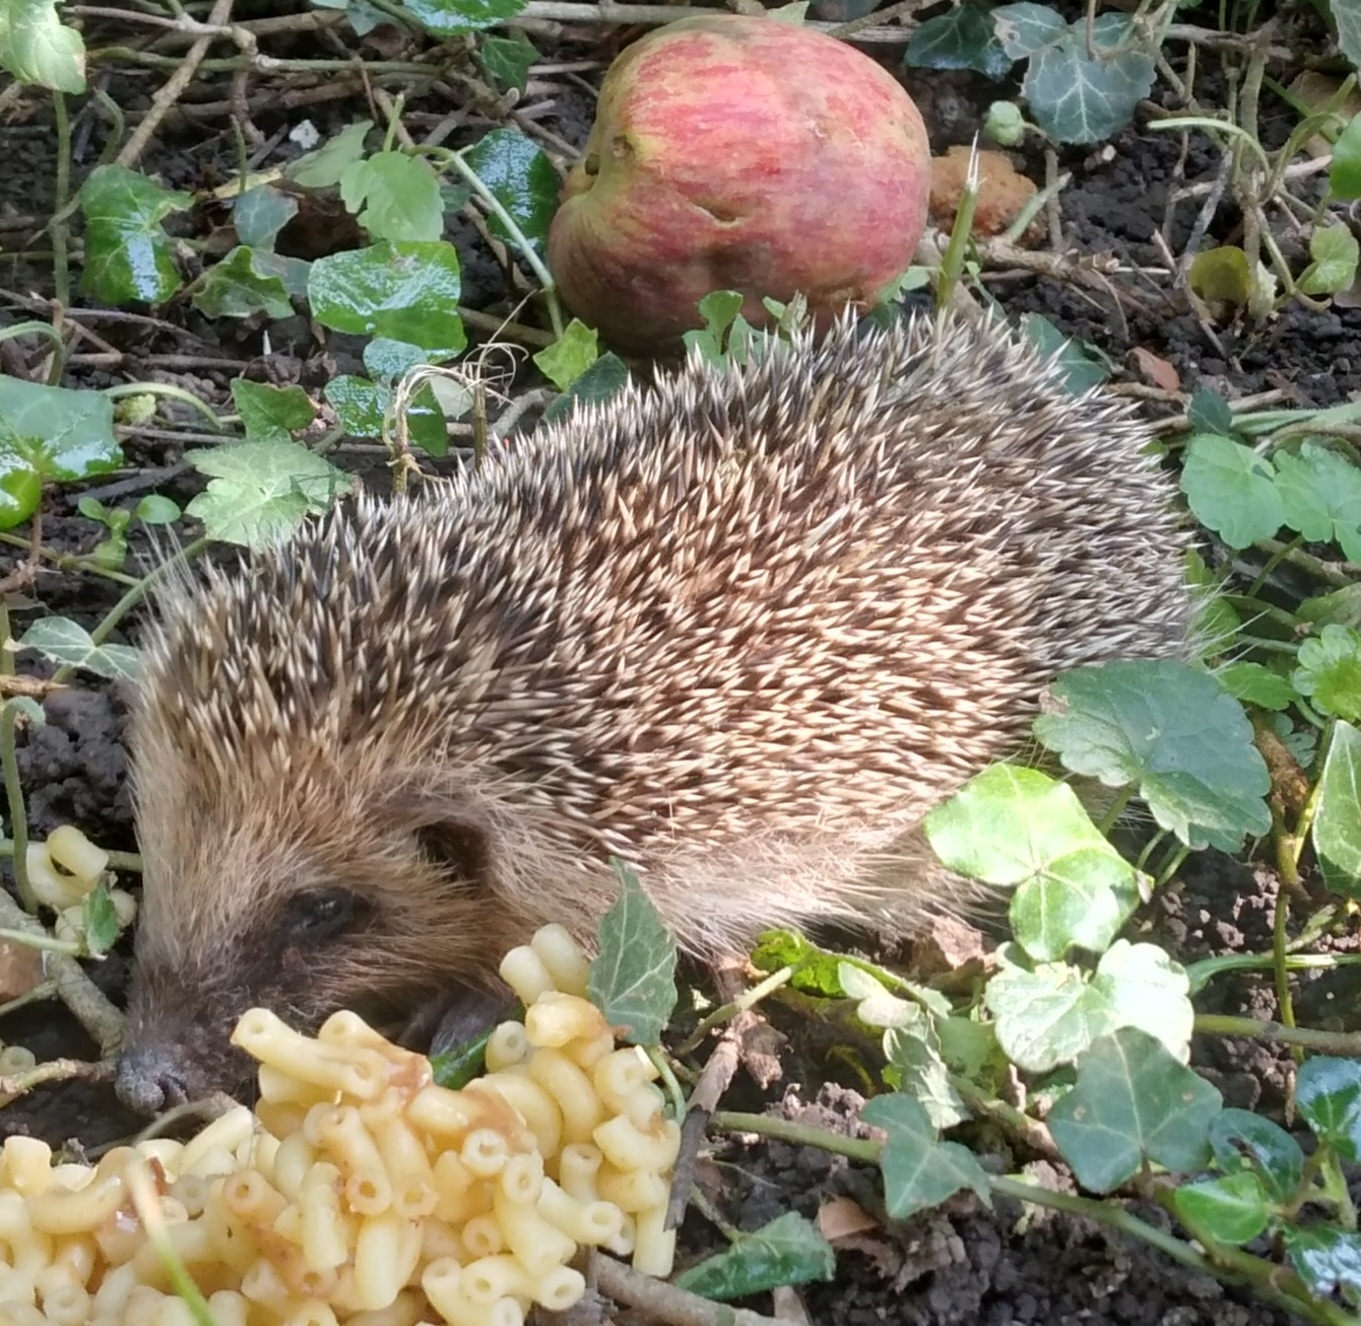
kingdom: Animalia
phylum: Chordata
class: Mammalia
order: Erinaceomorpha
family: Erinaceidae
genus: Erinaceus
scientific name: Erinaceus europaeus
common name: West european hedgehog
